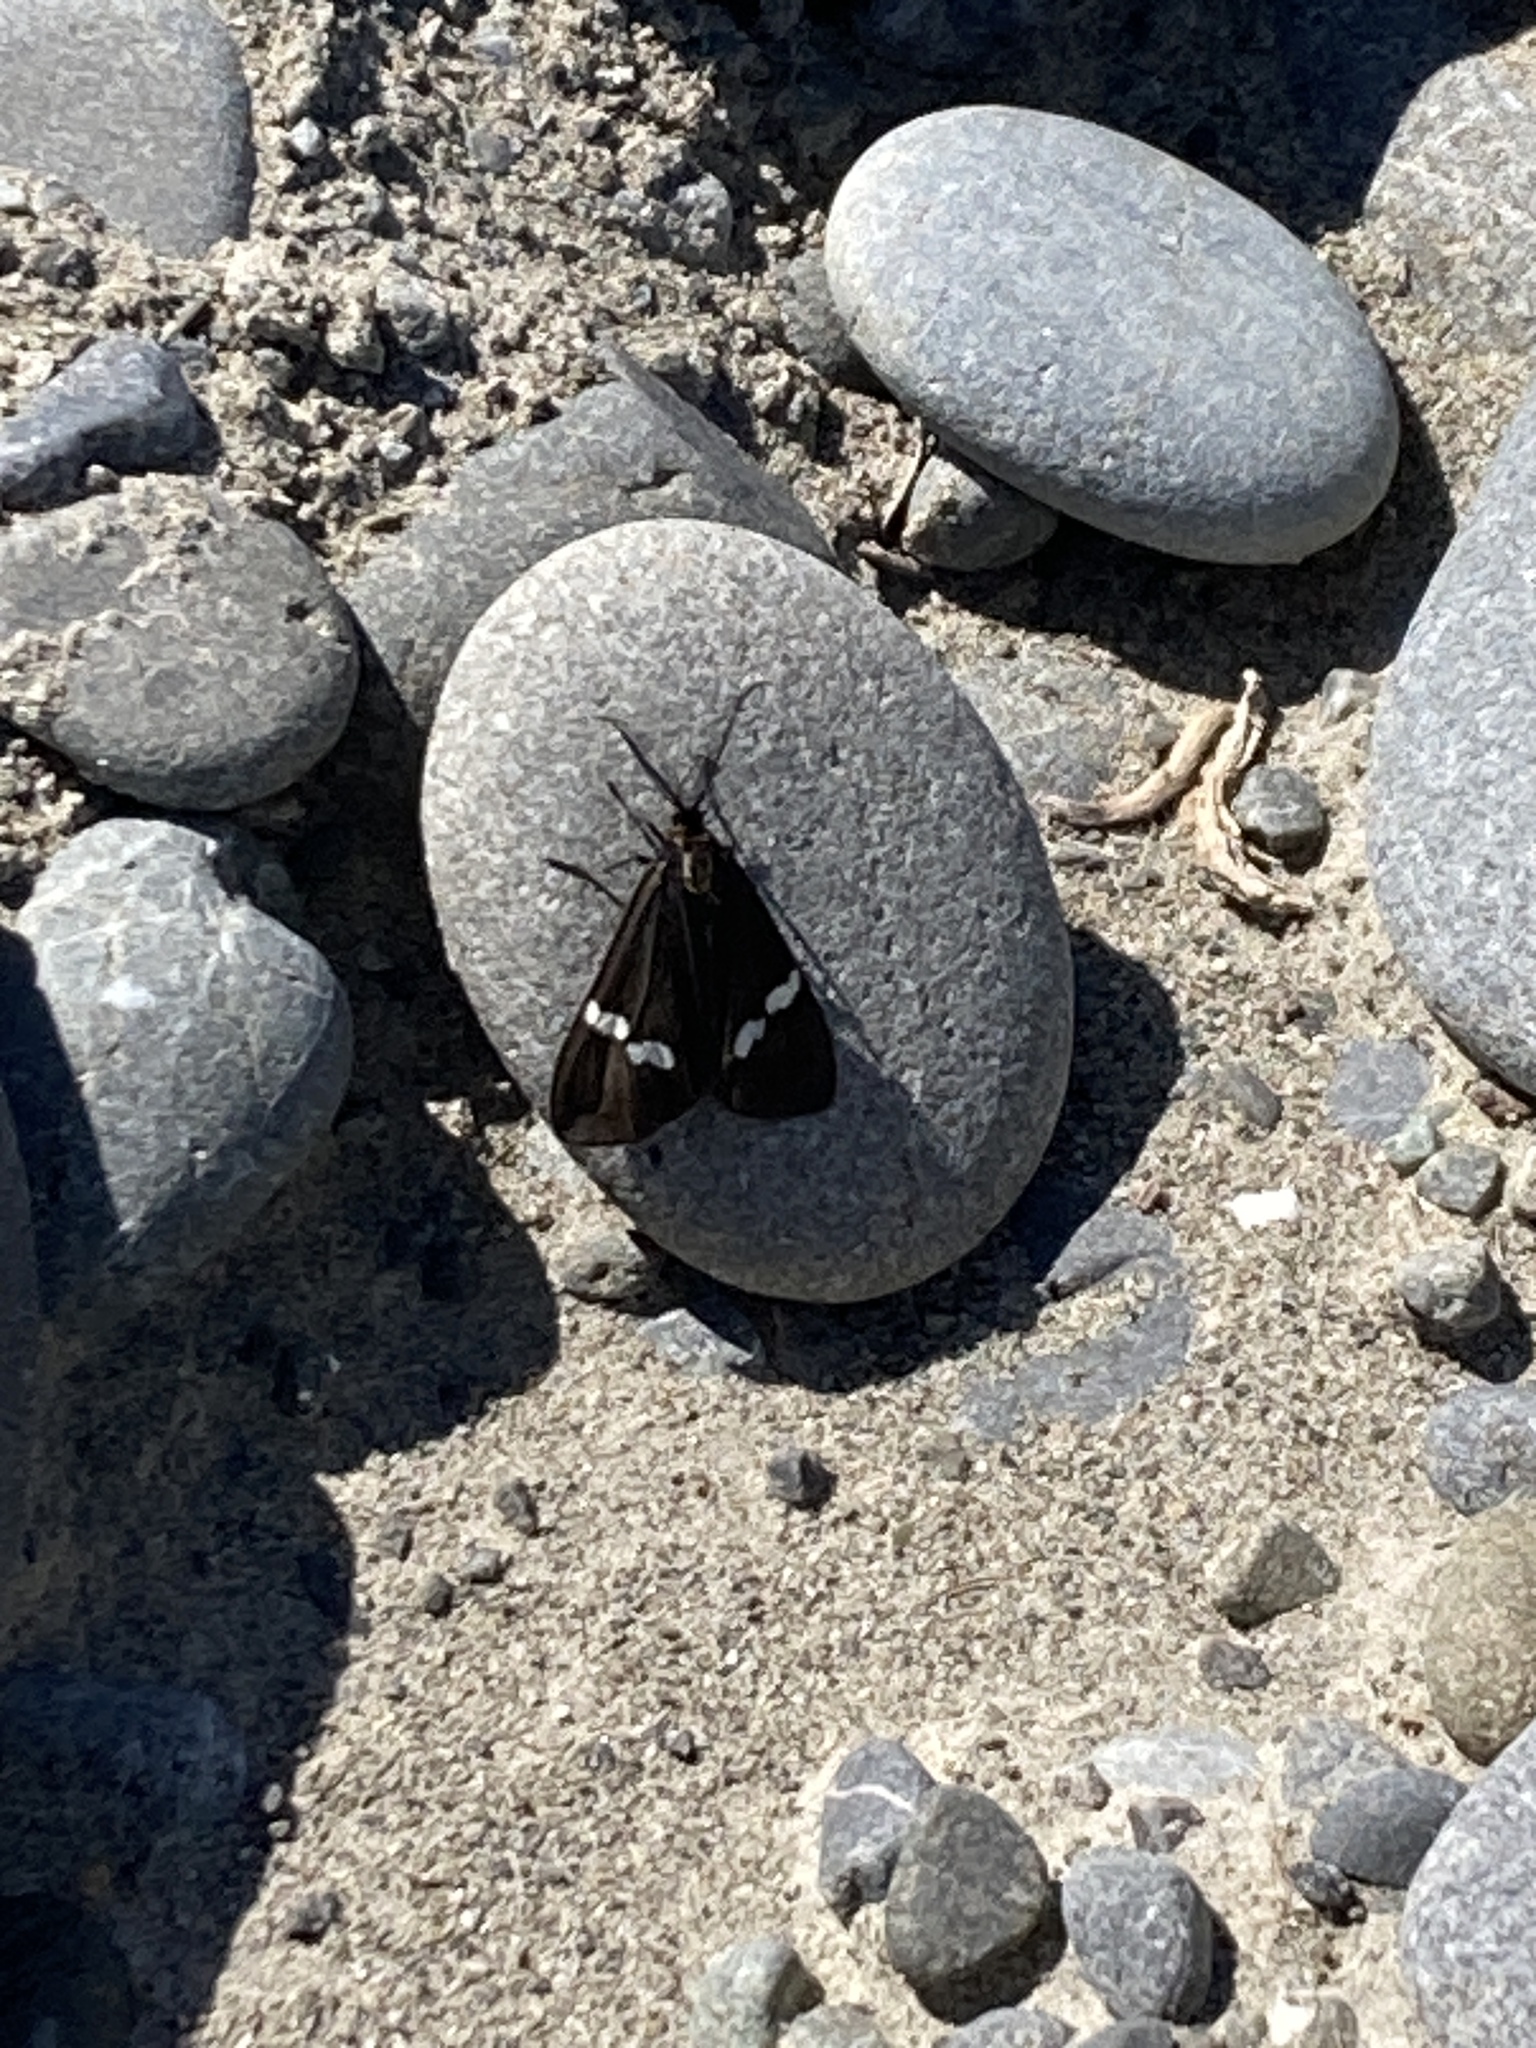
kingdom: Animalia
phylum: Arthropoda
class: Insecta
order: Lepidoptera
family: Erebidae
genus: Nyctemera
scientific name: Nyctemera annulatum
